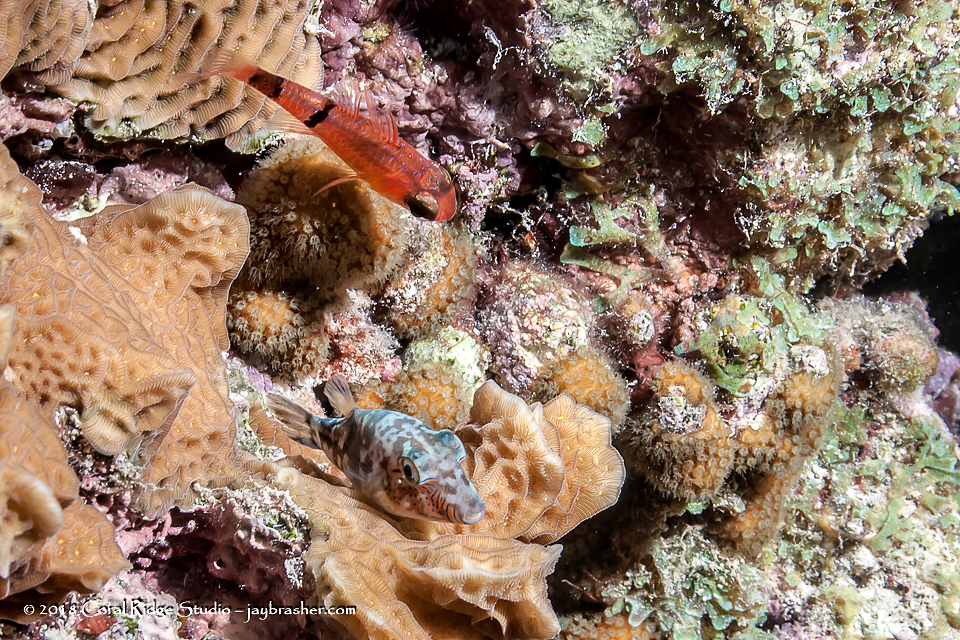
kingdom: Animalia
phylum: Chordata
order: Perciformes
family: Apogonidae
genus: Apogon
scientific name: Apogon townsendi
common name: Belted cardinalfish
